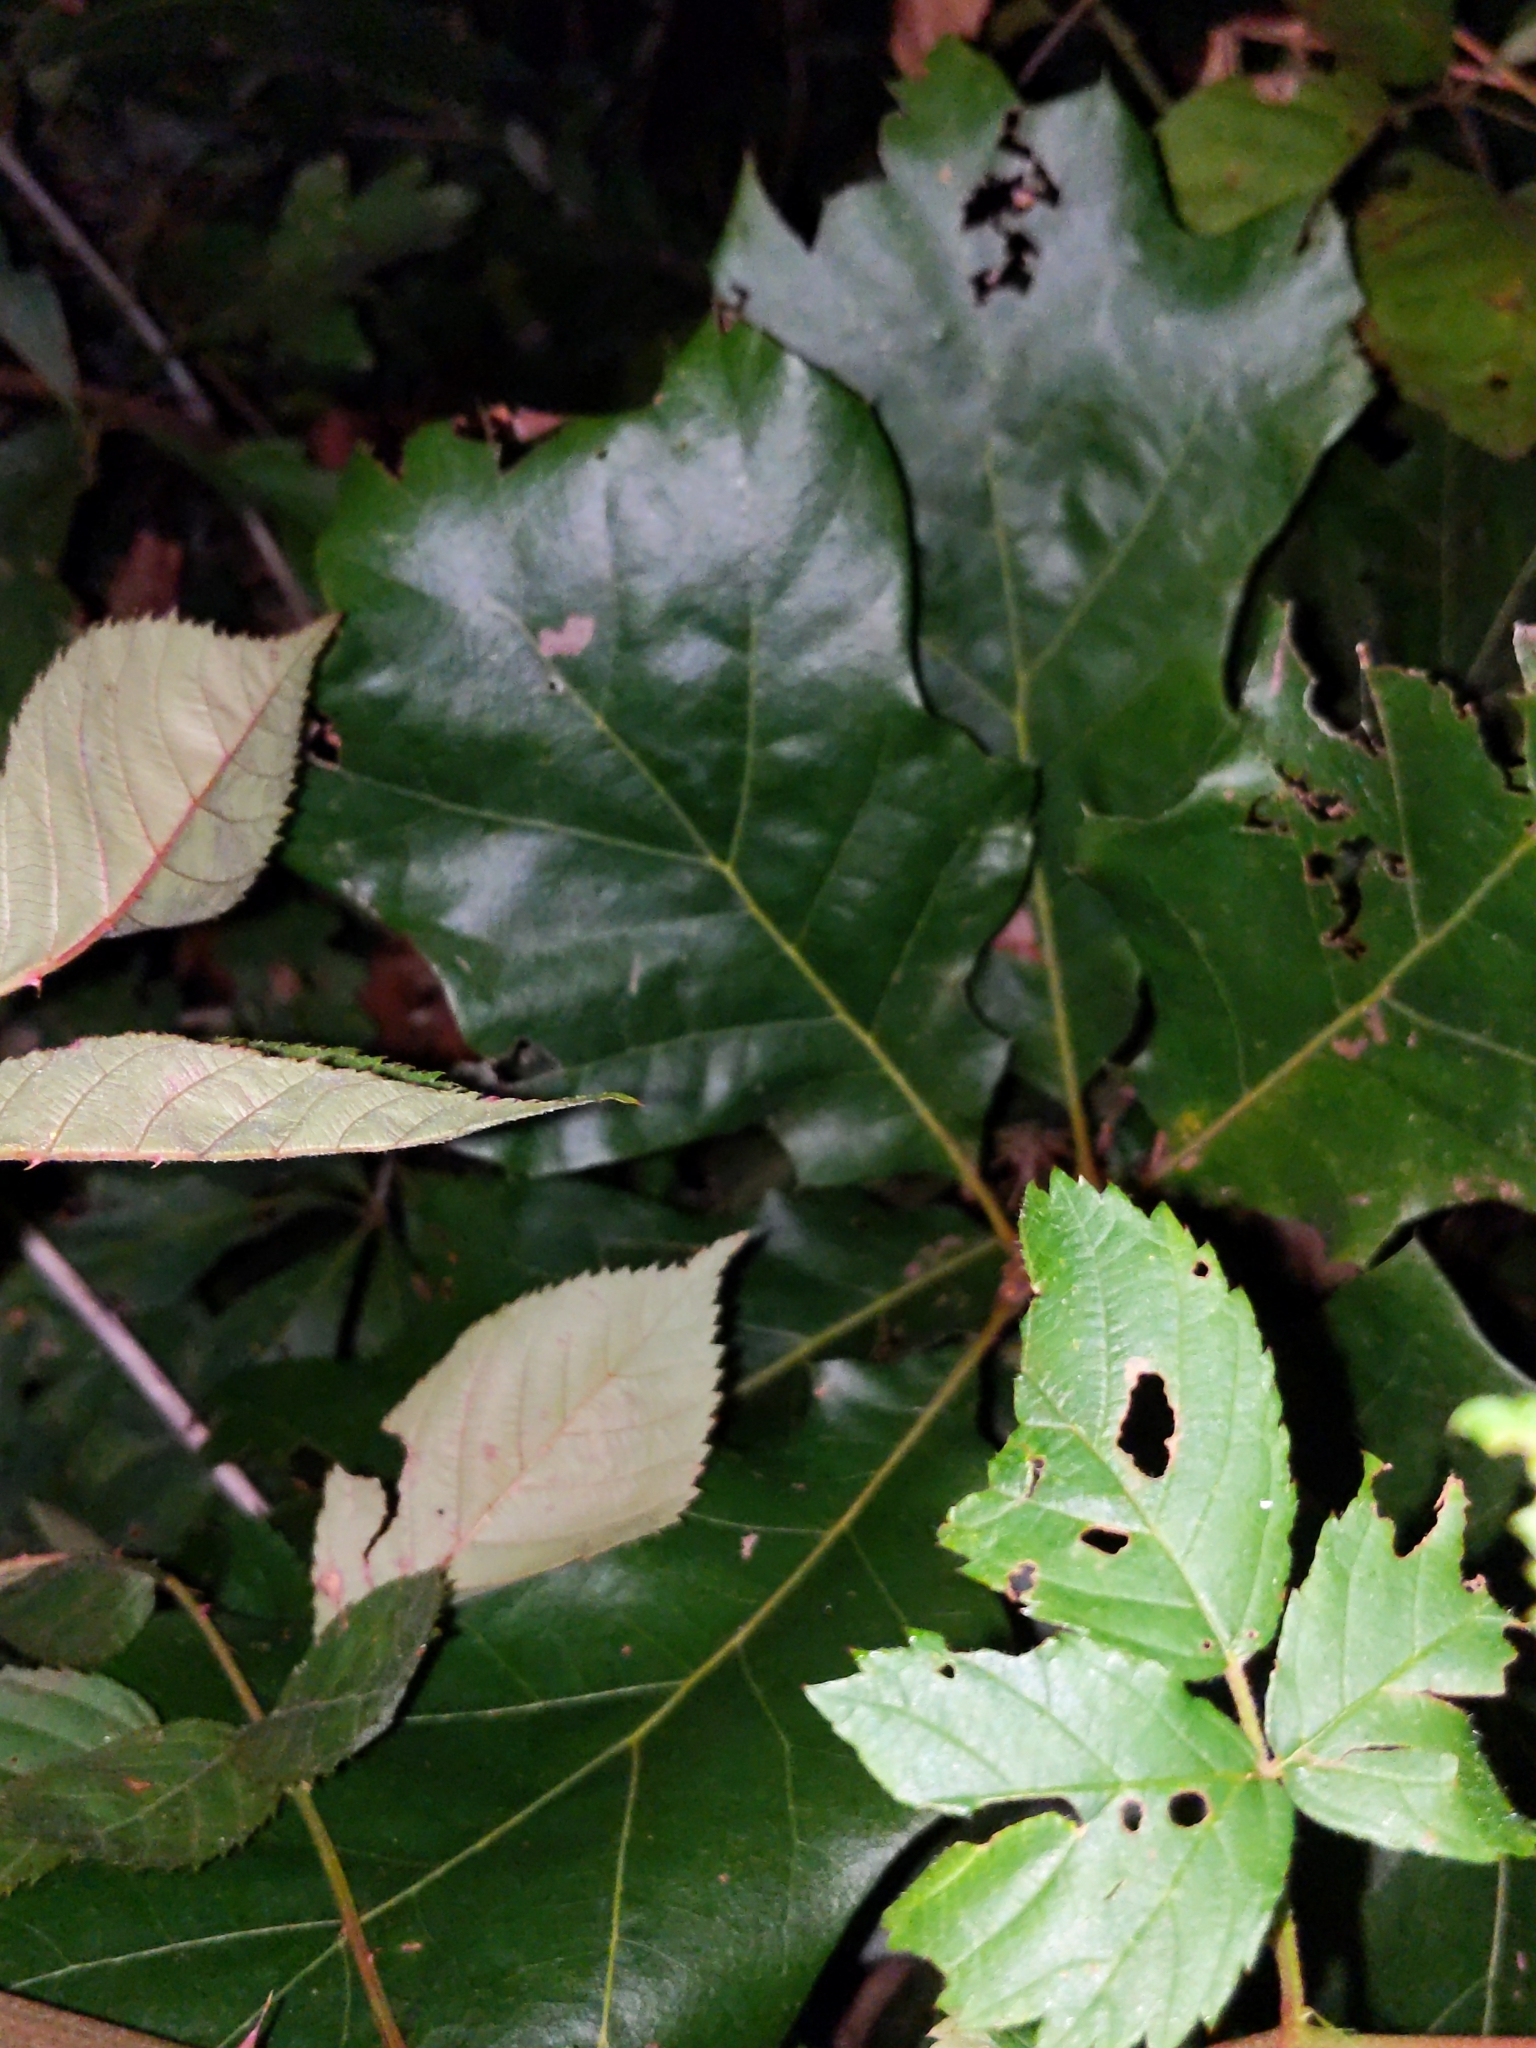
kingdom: Plantae
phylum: Tracheophyta
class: Magnoliopsida
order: Fagales
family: Fagaceae
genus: Quercus
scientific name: Quercus velutina
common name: Black oak
